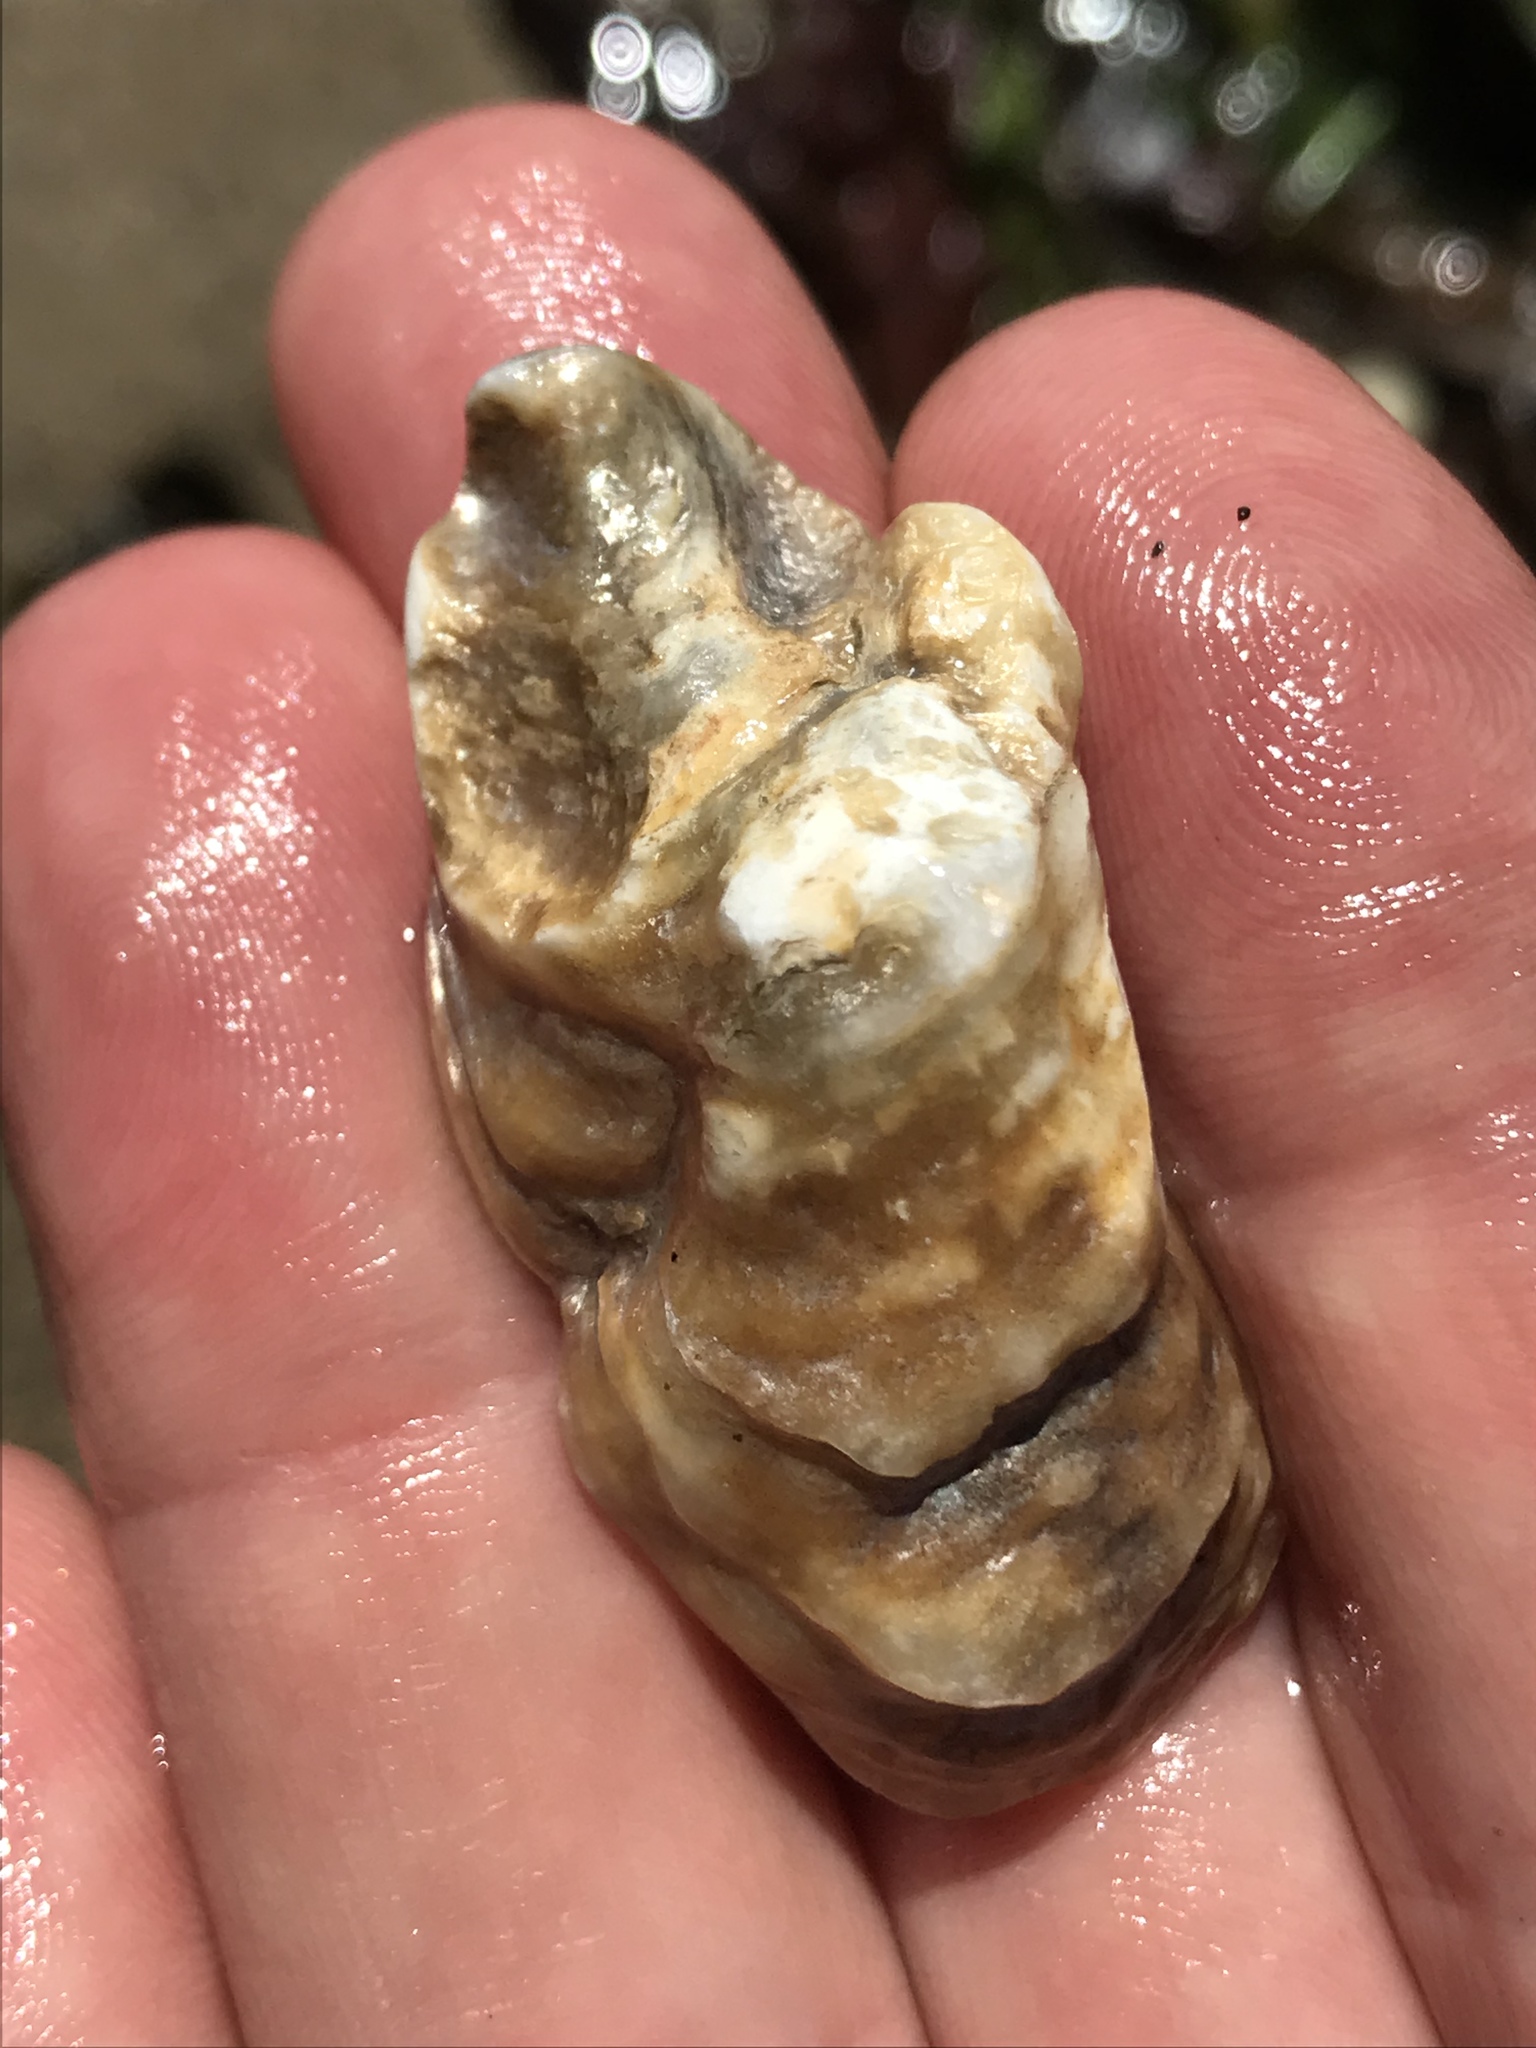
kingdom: Animalia
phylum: Mollusca
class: Bivalvia
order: Ostreida
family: Ostreidae
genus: Ostrea
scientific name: Ostrea lurida
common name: Olympia flat oyster
